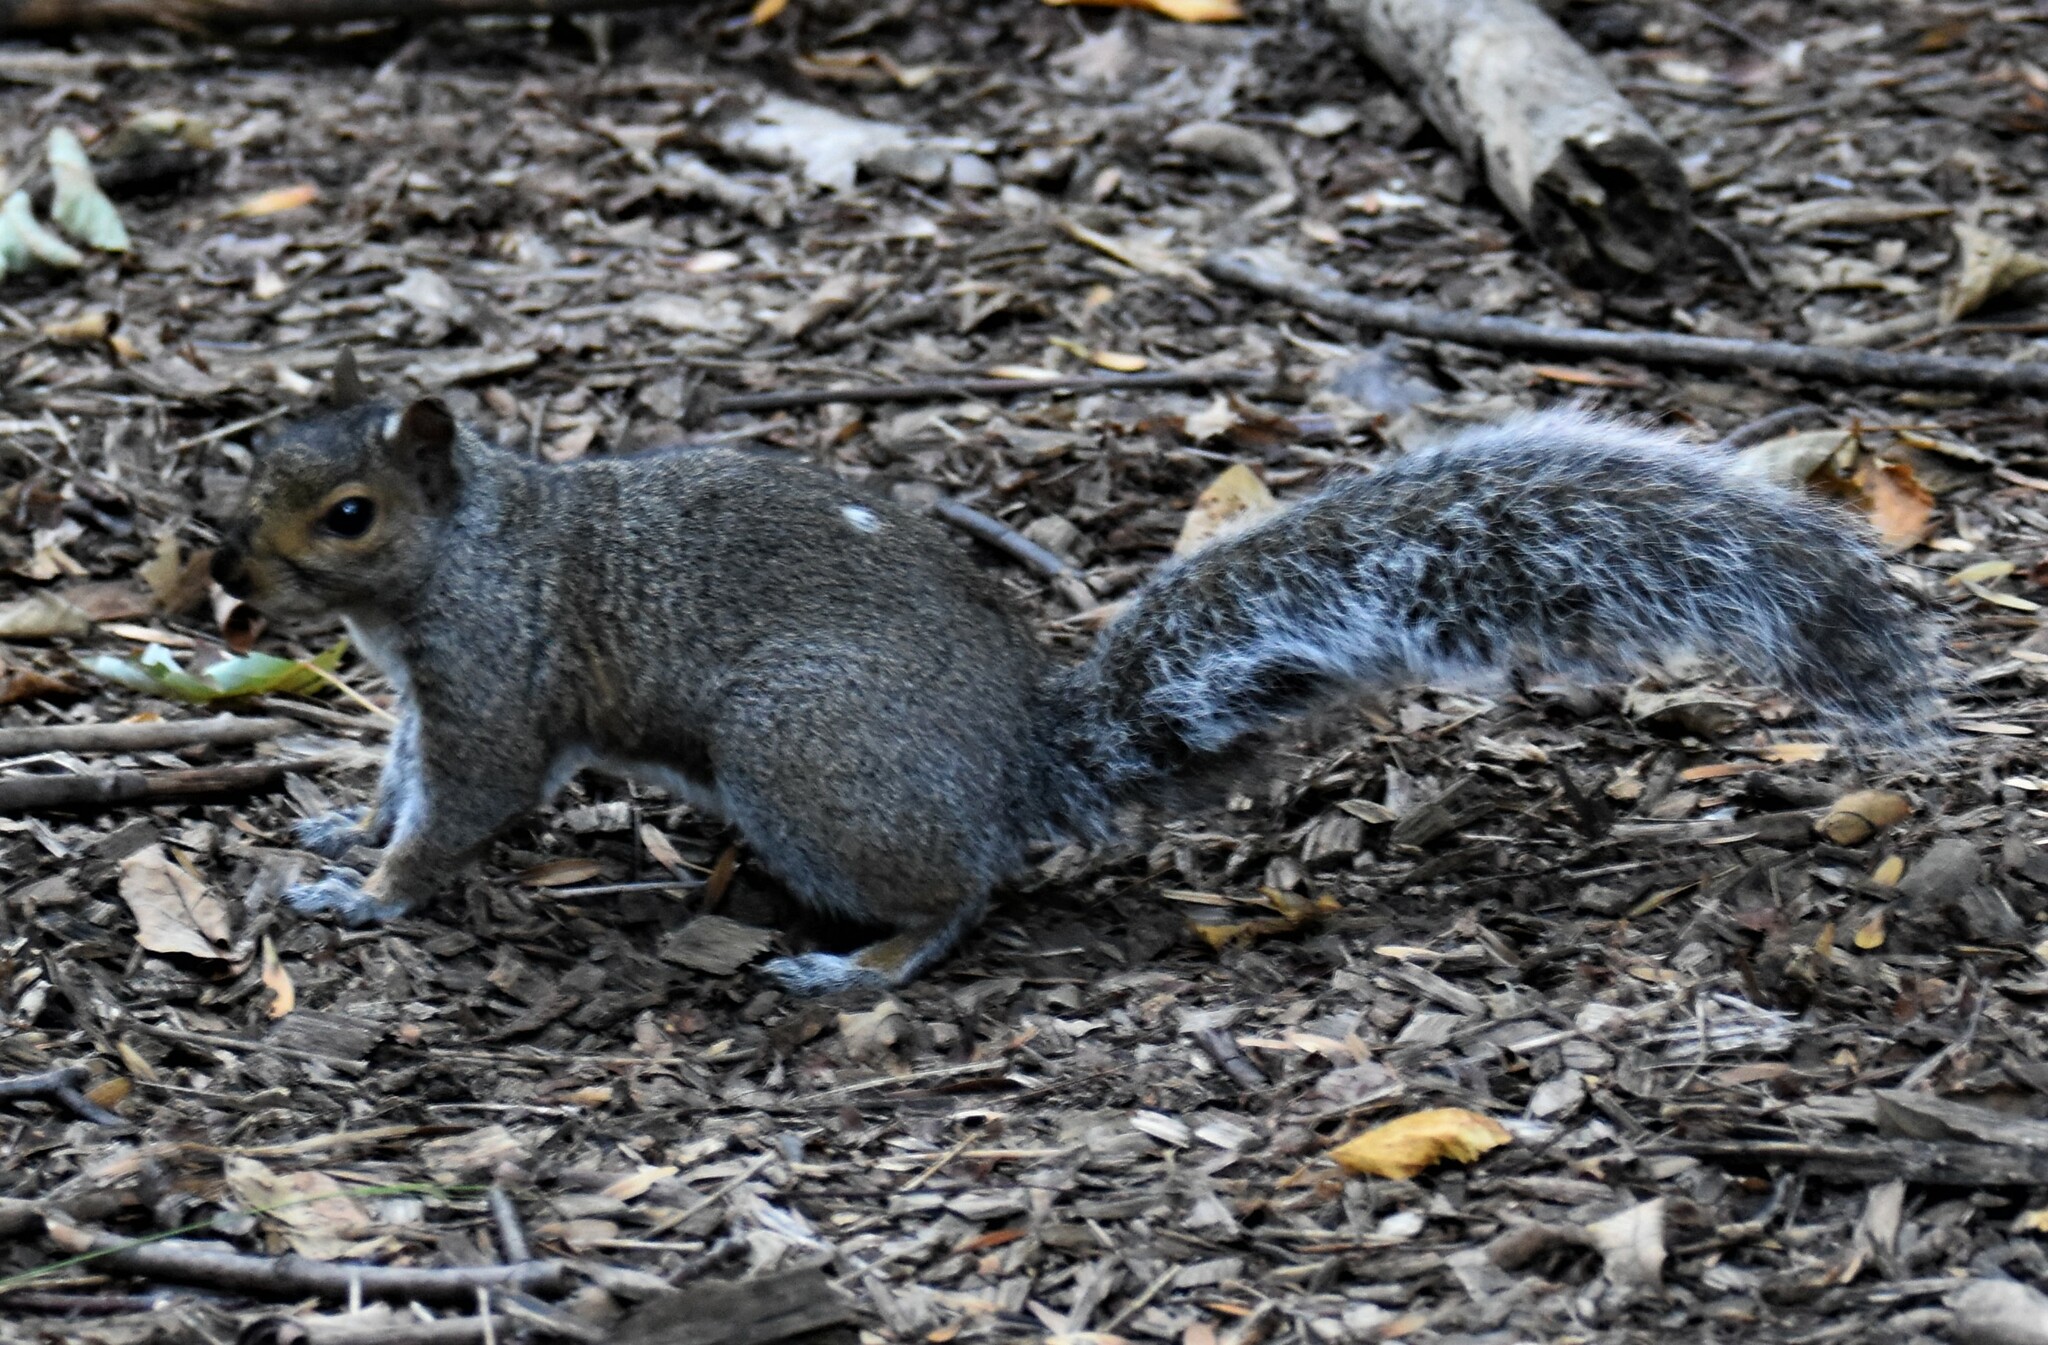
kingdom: Animalia
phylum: Chordata
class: Mammalia
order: Rodentia
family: Sciuridae
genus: Sciurus
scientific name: Sciurus carolinensis
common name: Eastern gray squirrel
